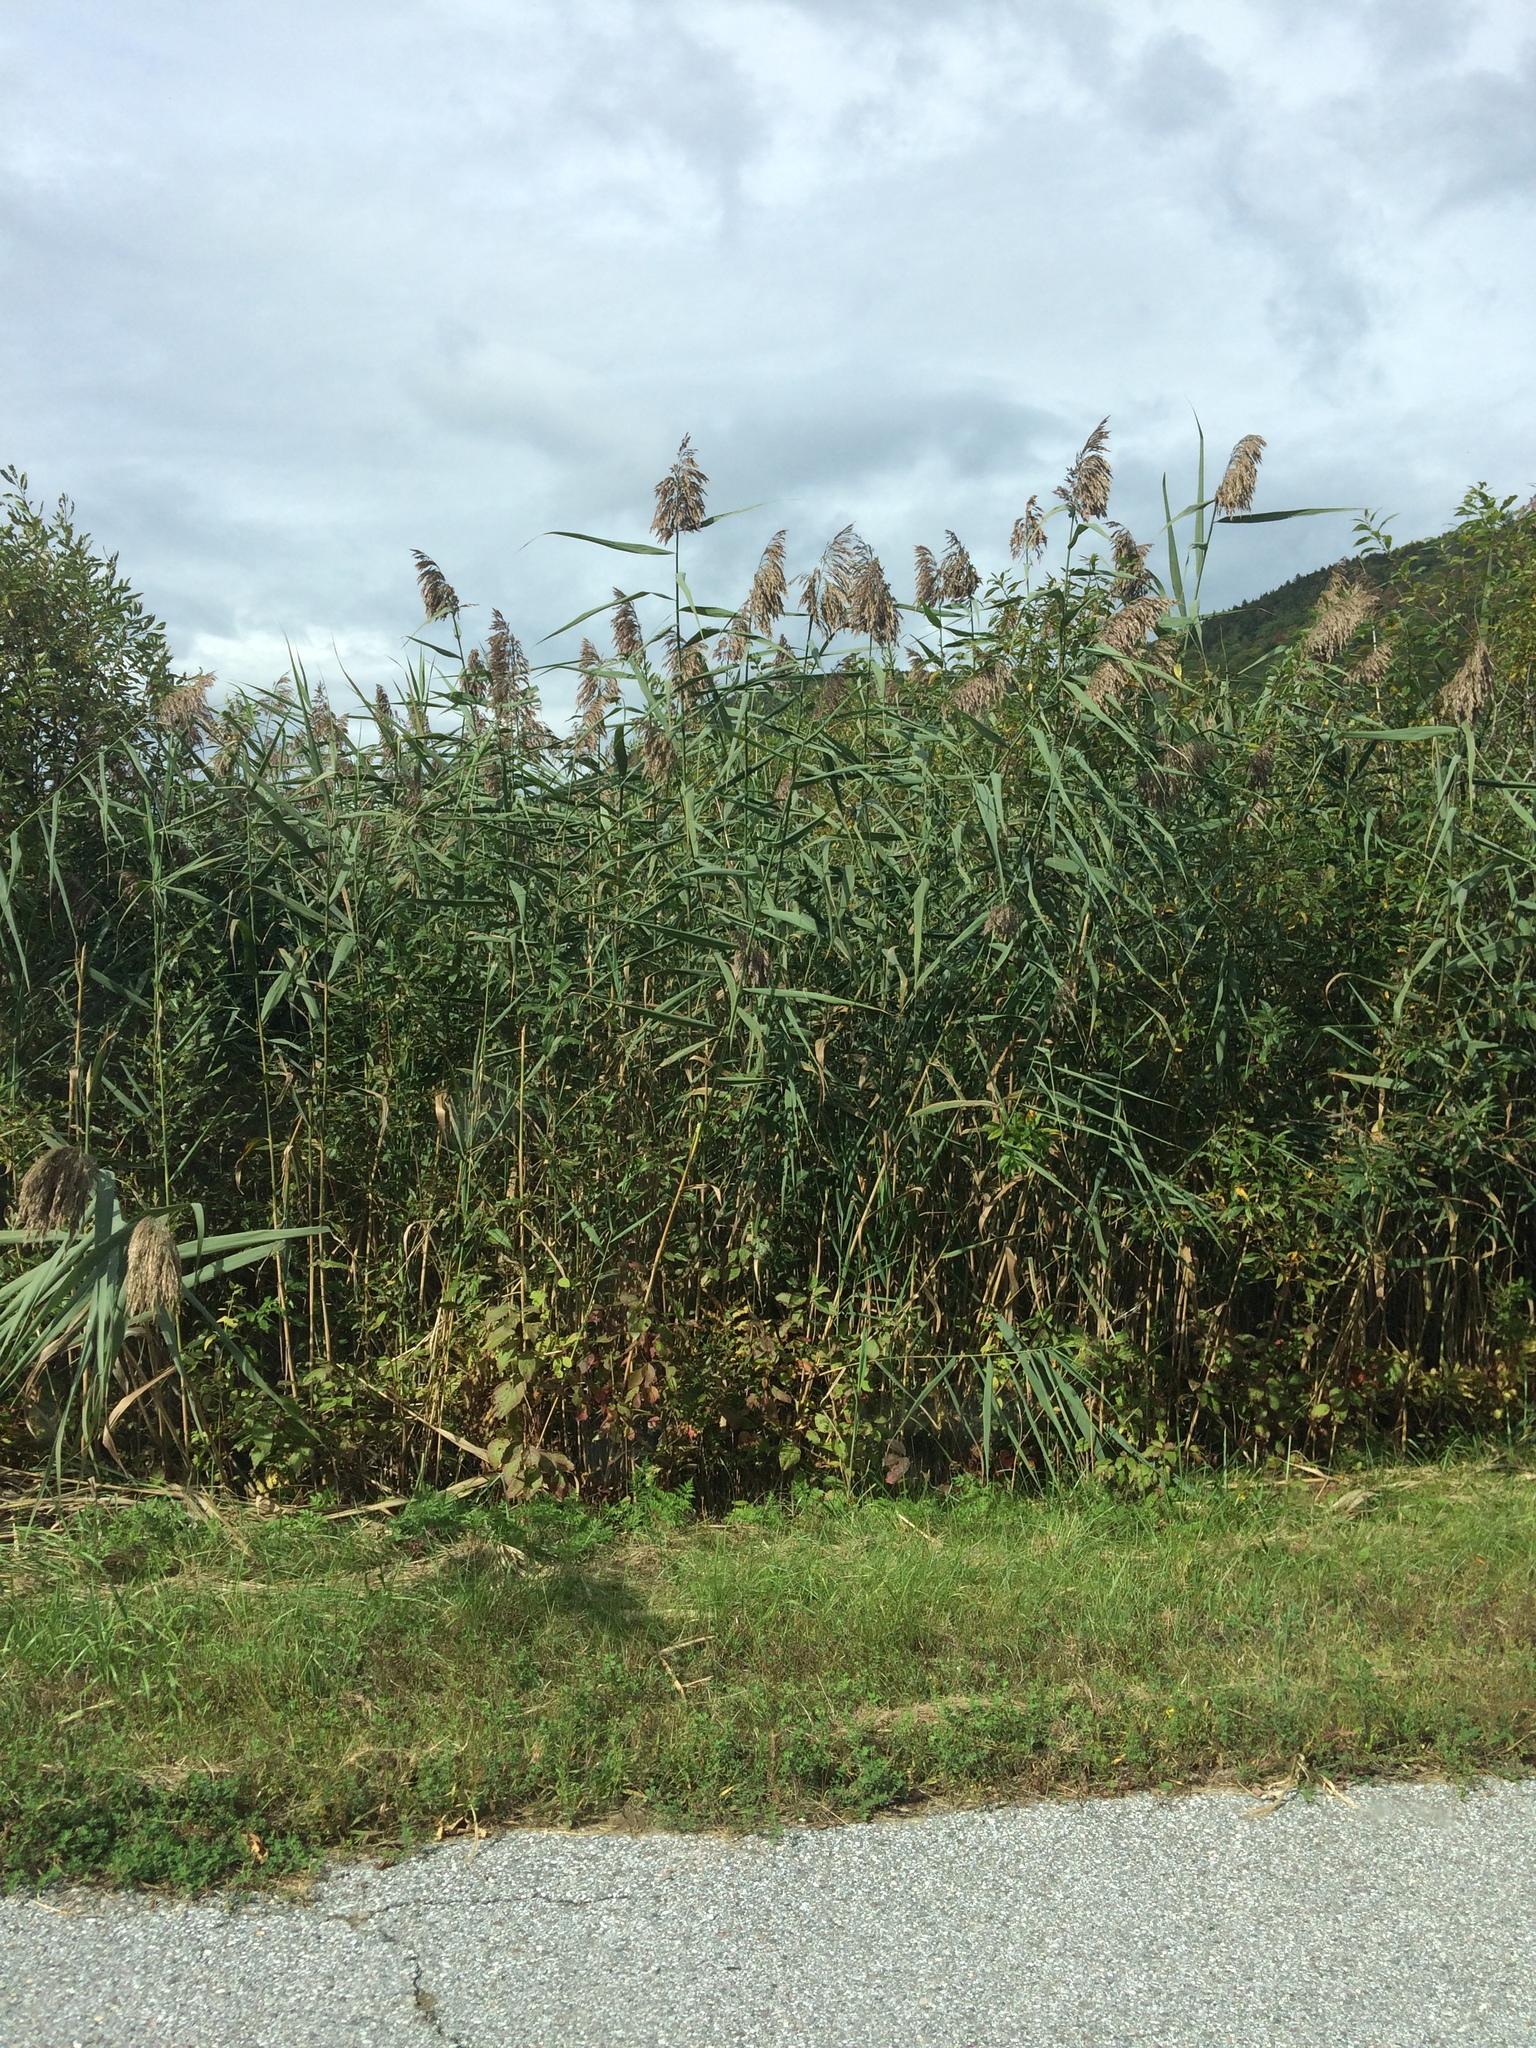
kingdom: Plantae
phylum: Tracheophyta
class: Liliopsida
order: Poales
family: Poaceae
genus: Phragmites
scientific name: Phragmites australis
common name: Common reed
